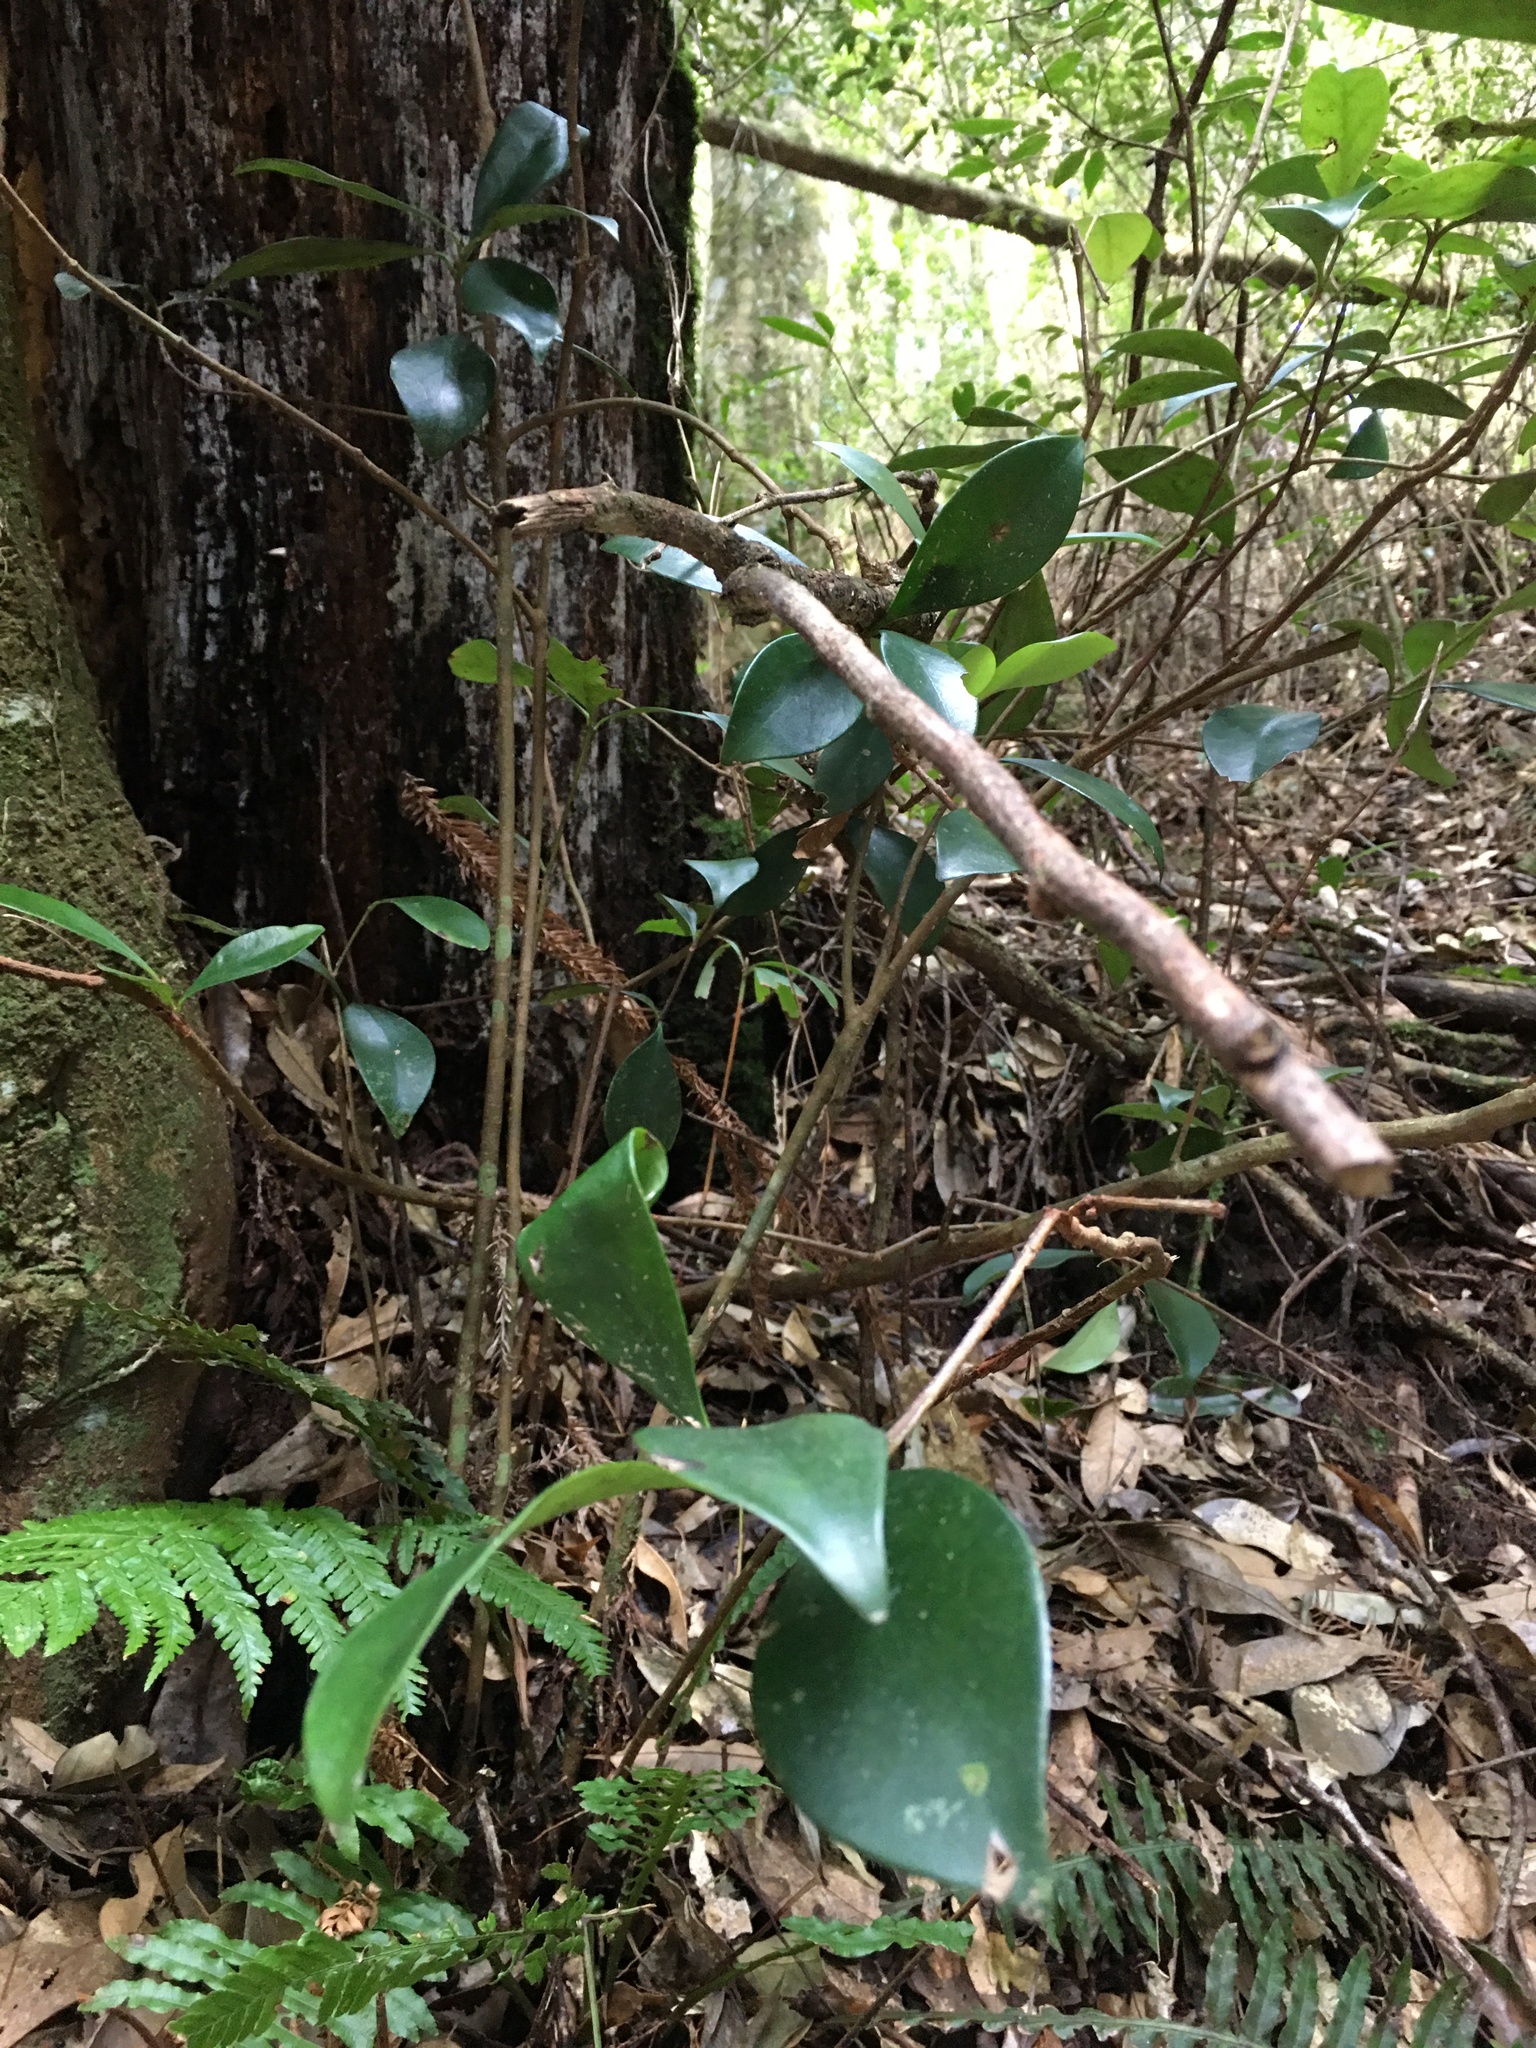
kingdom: Plantae
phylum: Tracheophyta
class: Magnoliopsida
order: Ericales
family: Pentaphylacaceae
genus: Ternstroemia
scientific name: Ternstroemia gymnanthera
